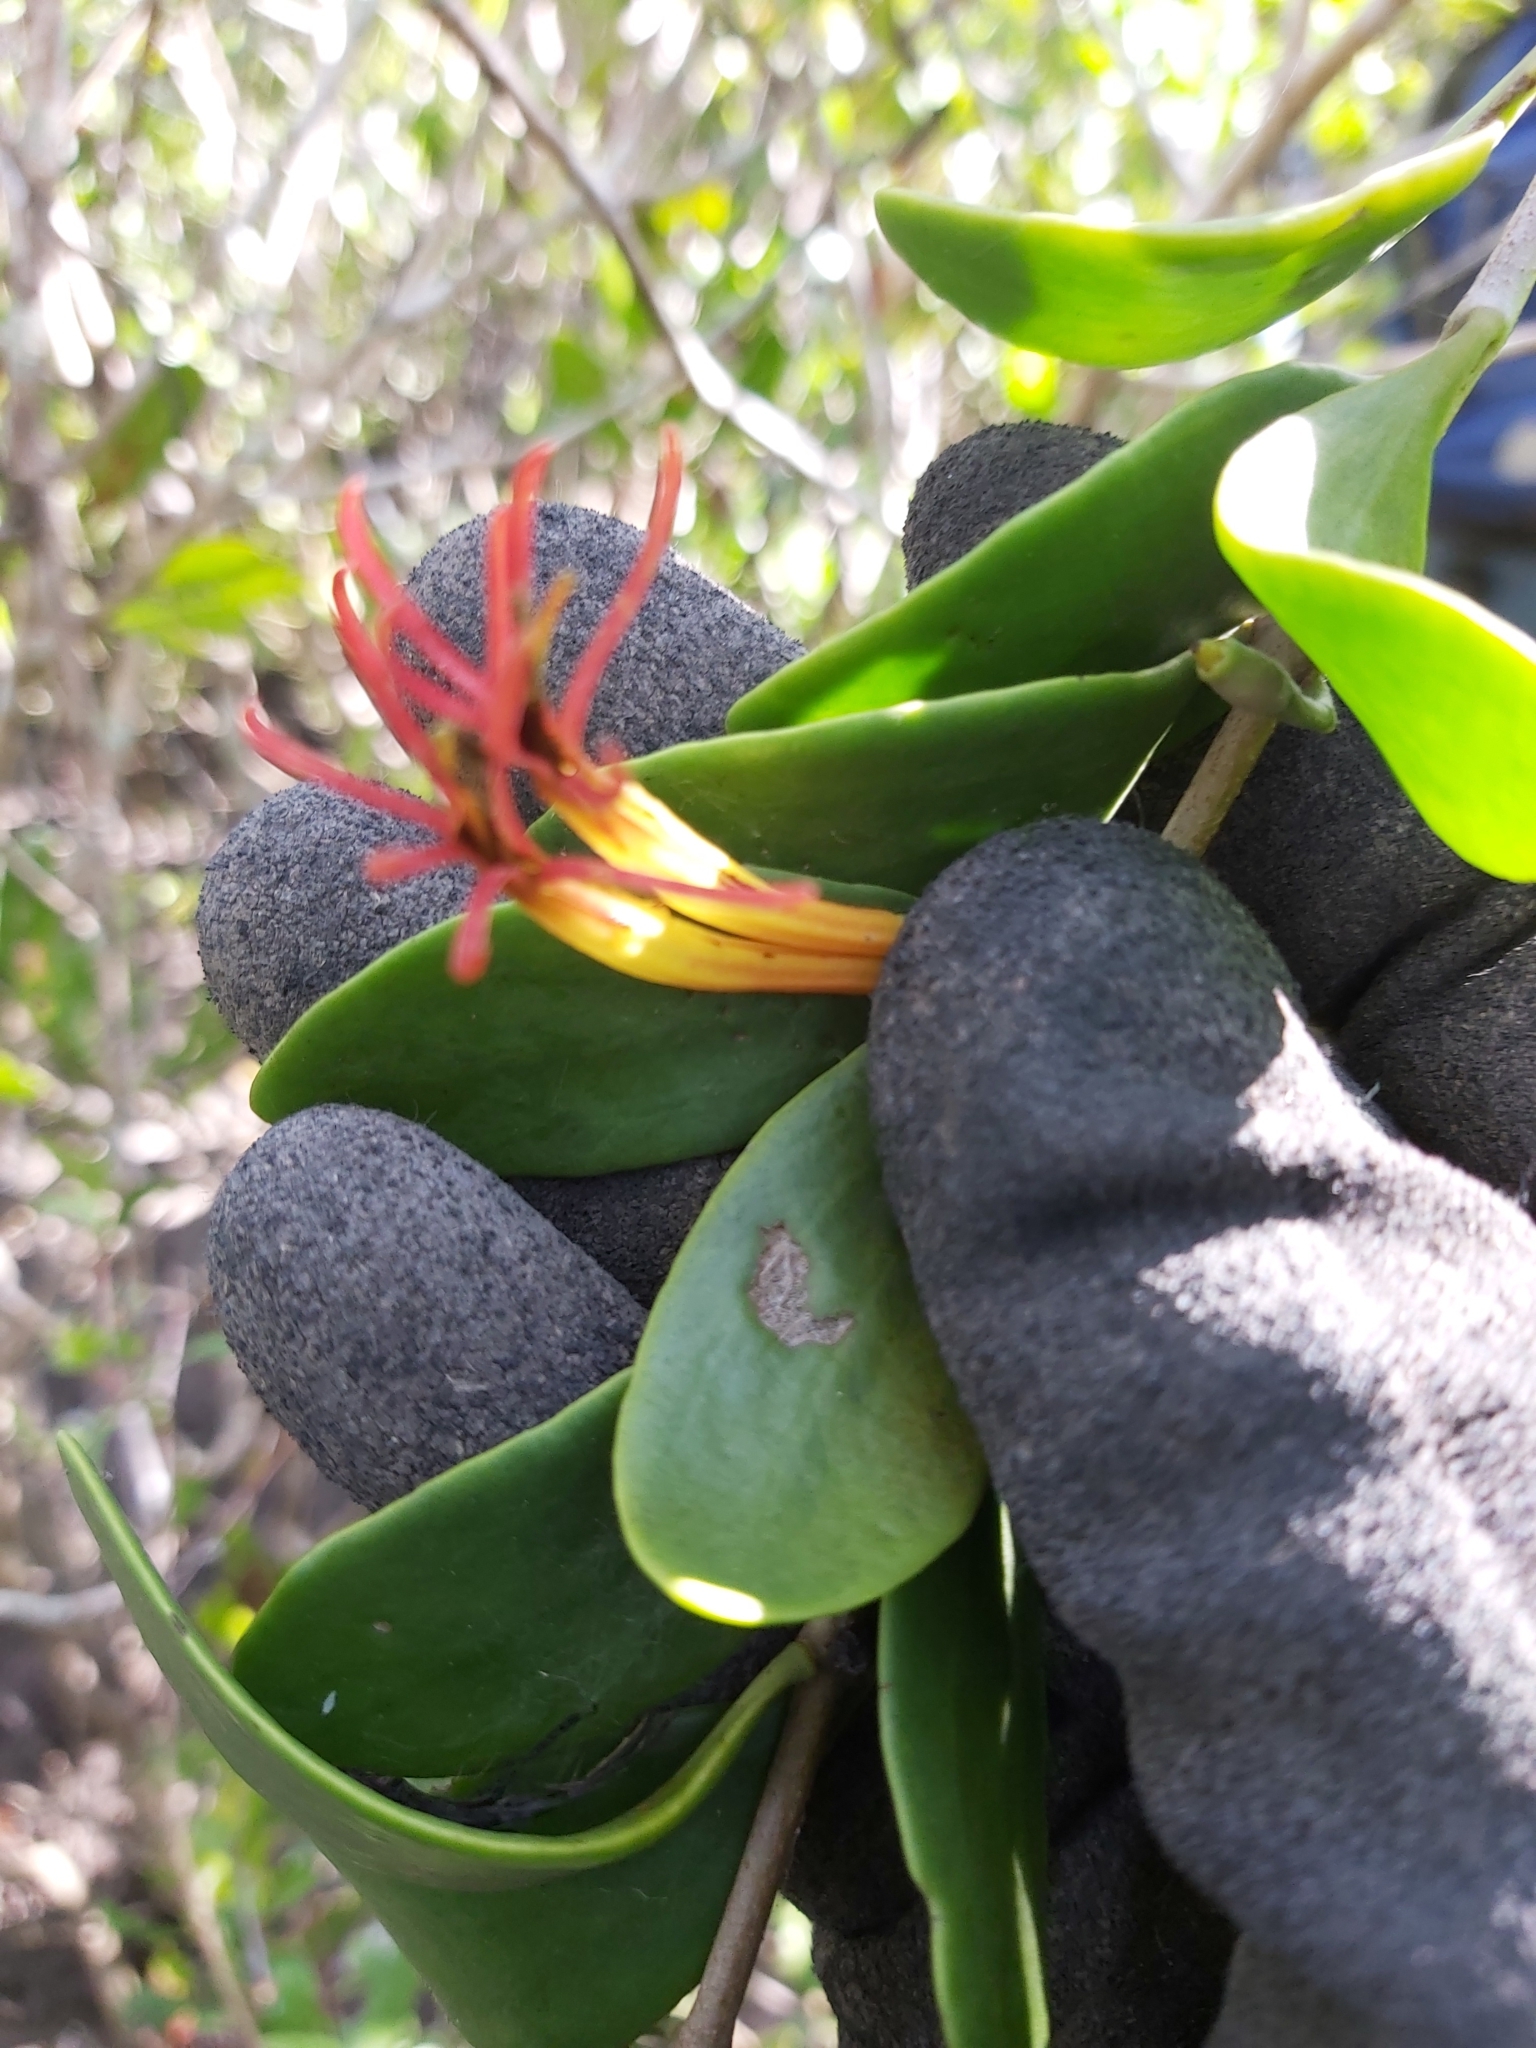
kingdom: Plantae
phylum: Tracheophyta
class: Magnoliopsida
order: Santalales
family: Loranthaceae
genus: Lysiana
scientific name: Lysiana maritima
